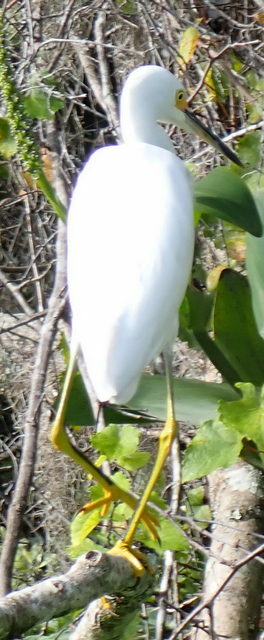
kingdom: Animalia
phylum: Chordata
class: Aves
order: Pelecaniformes
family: Ardeidae
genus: Egretta
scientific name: Egretta thula
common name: Snowy egret
